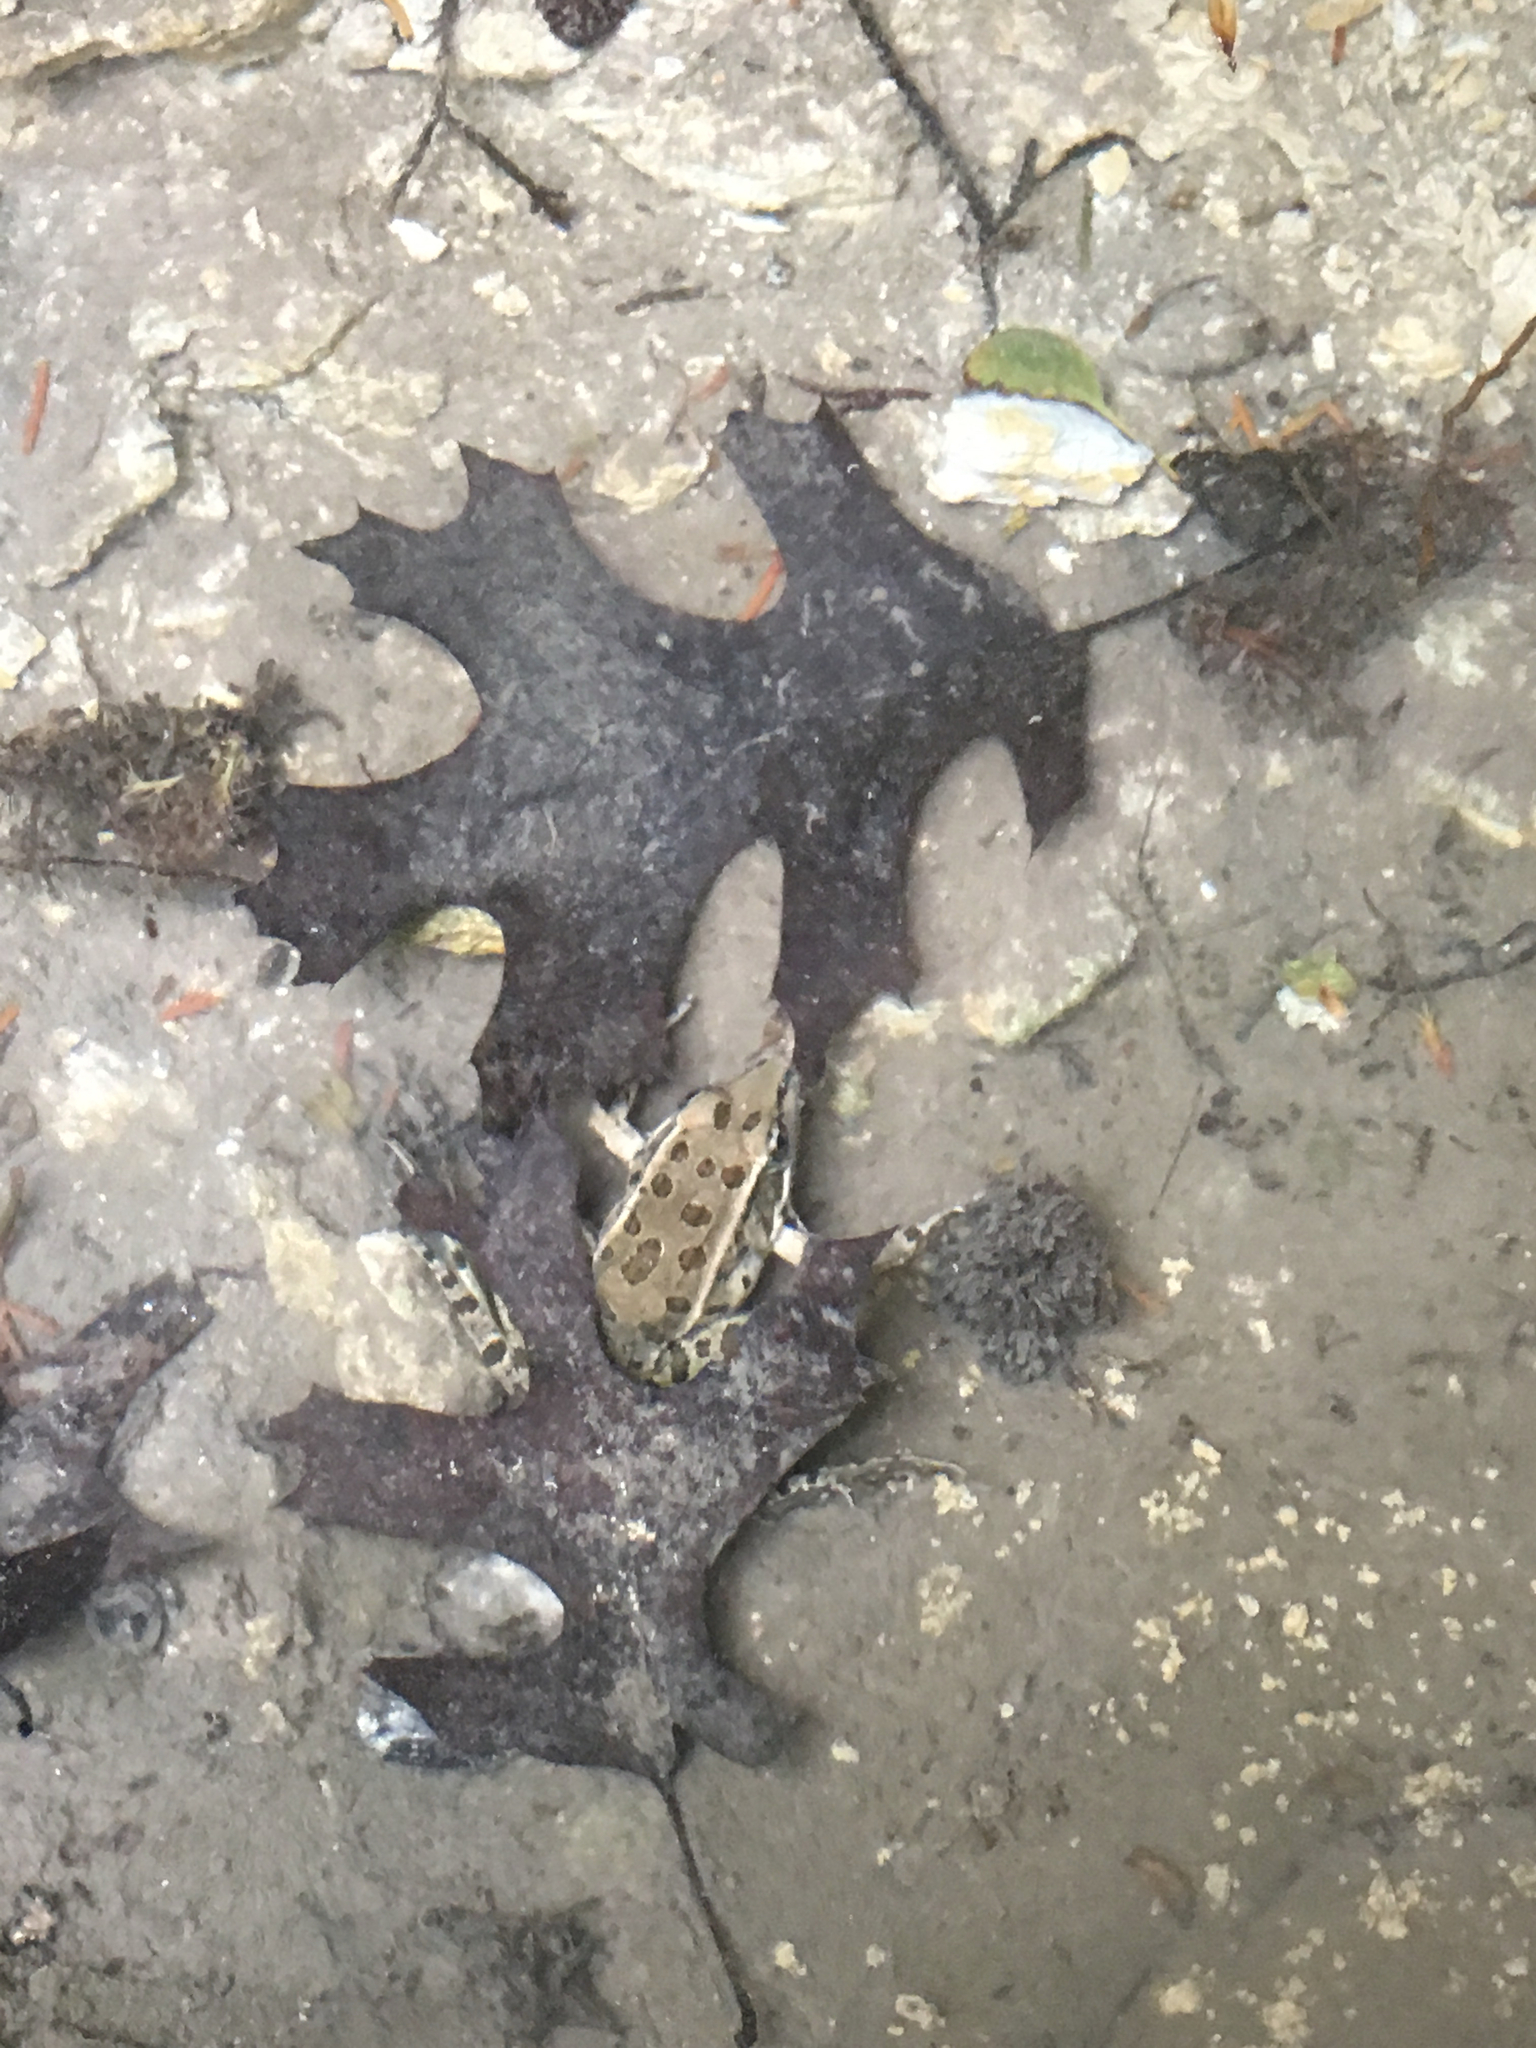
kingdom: Animalia
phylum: Chordata
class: Amphibia
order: Anura
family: Ranidae
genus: Lithobates
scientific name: Lithobates berlandieri
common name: Rio grande leopard frog
